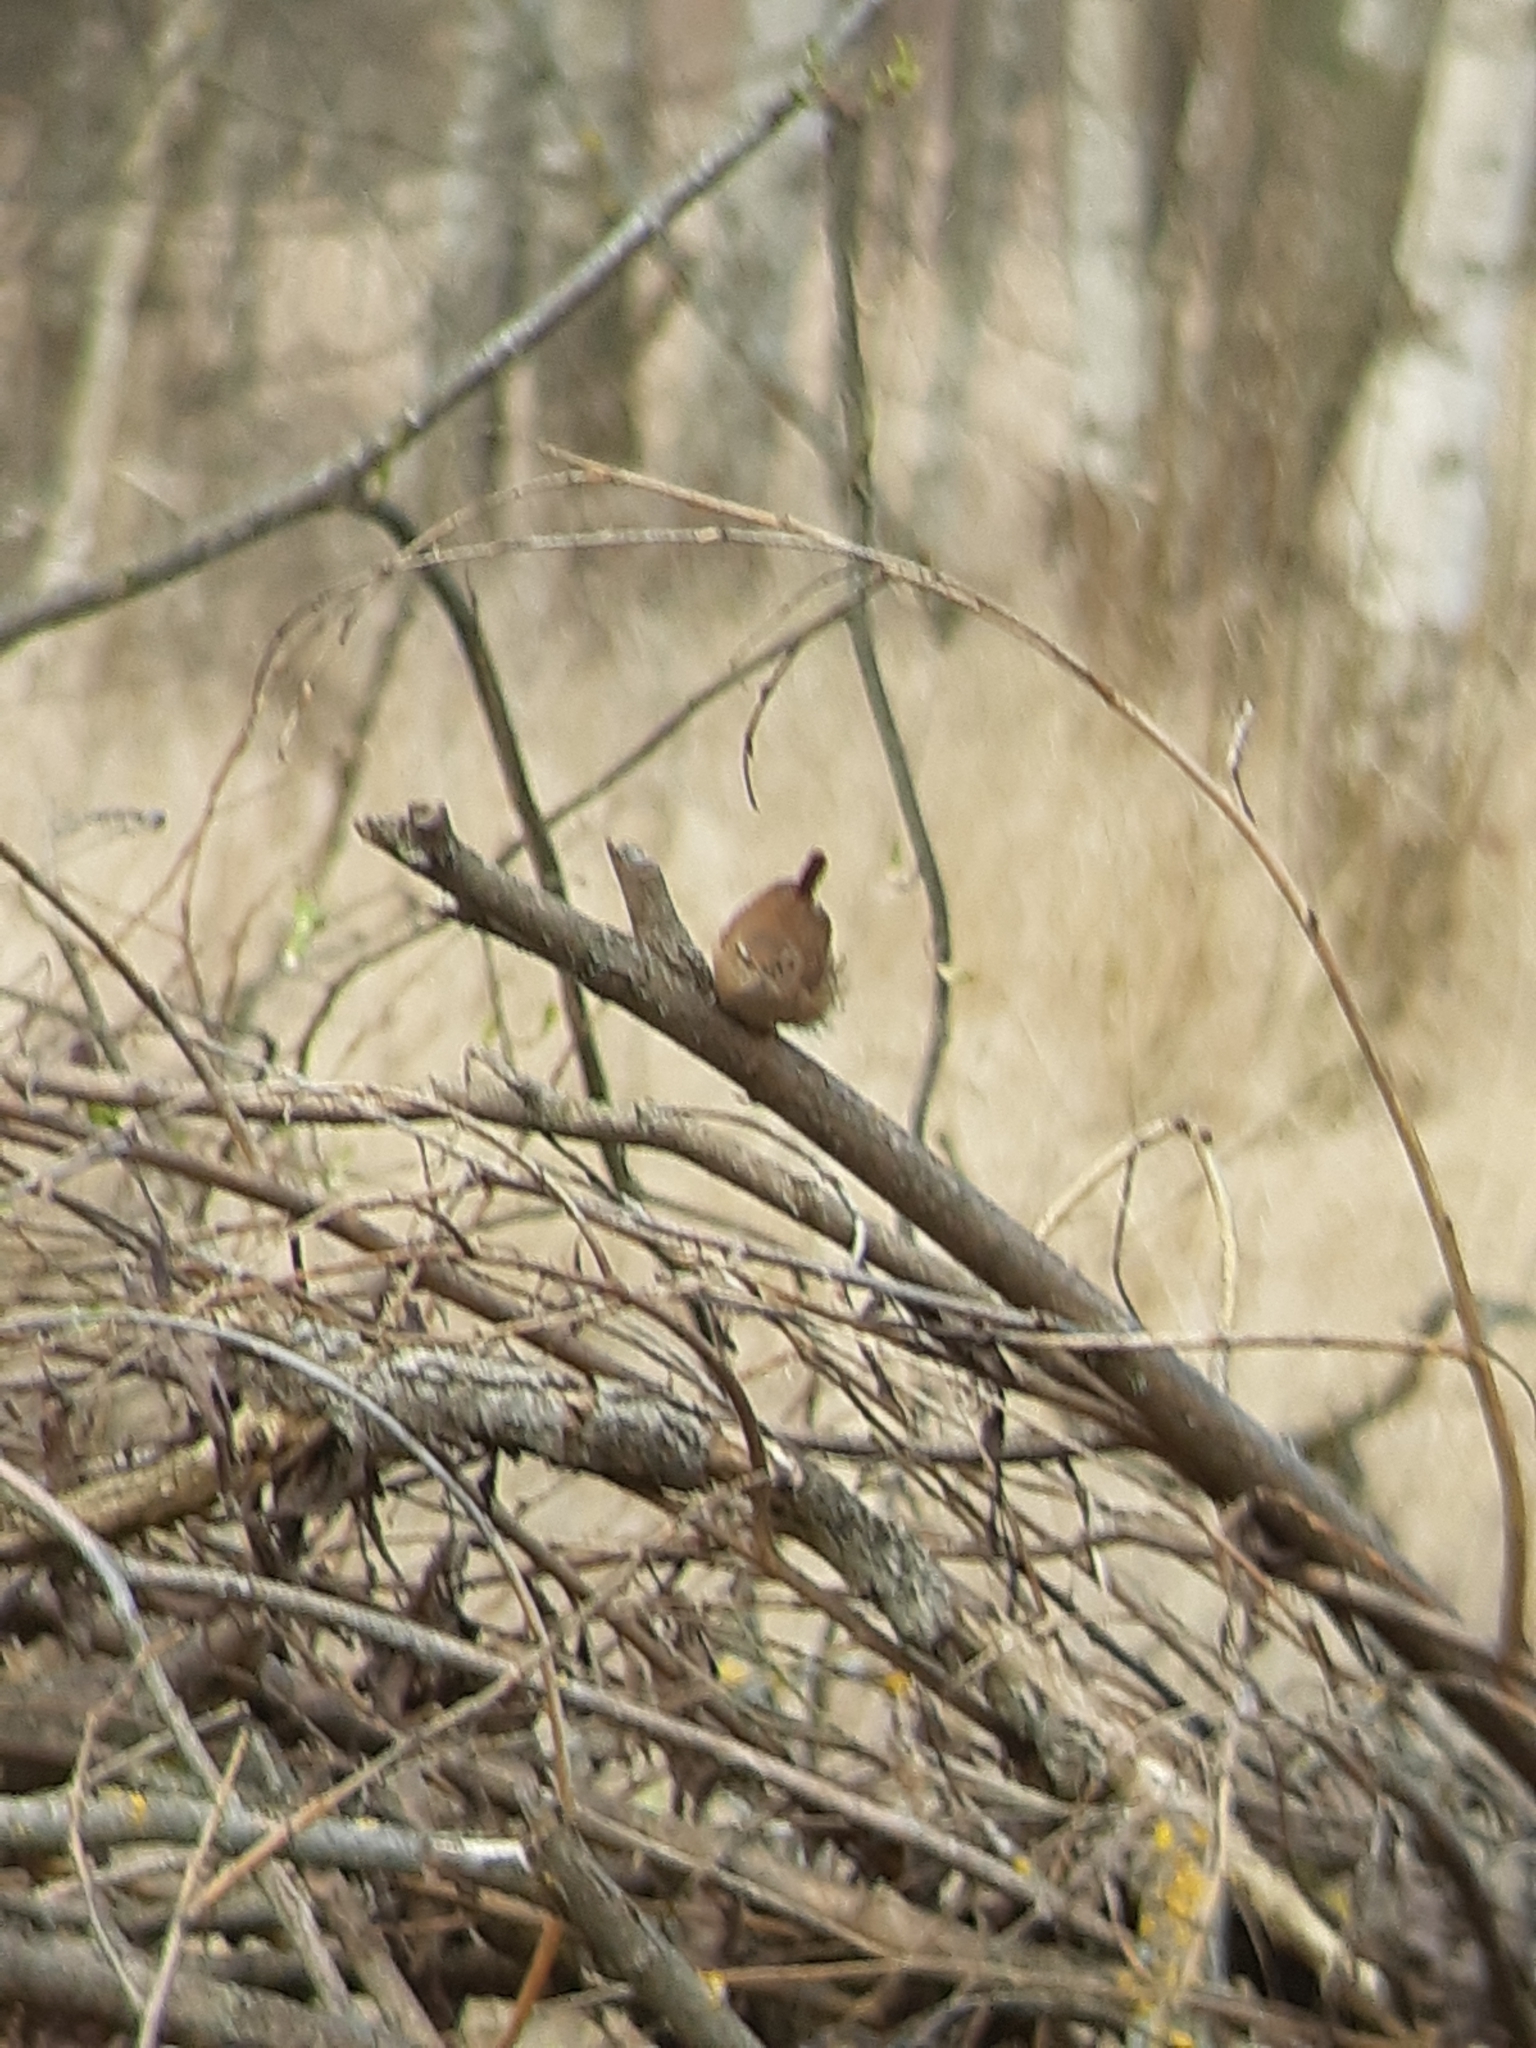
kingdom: Animalia
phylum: Chordata
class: Aves
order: Passeriformes
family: Troglodytidae
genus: Troglodytes
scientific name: Troglodytes troglodytes
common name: Eurasian wren
